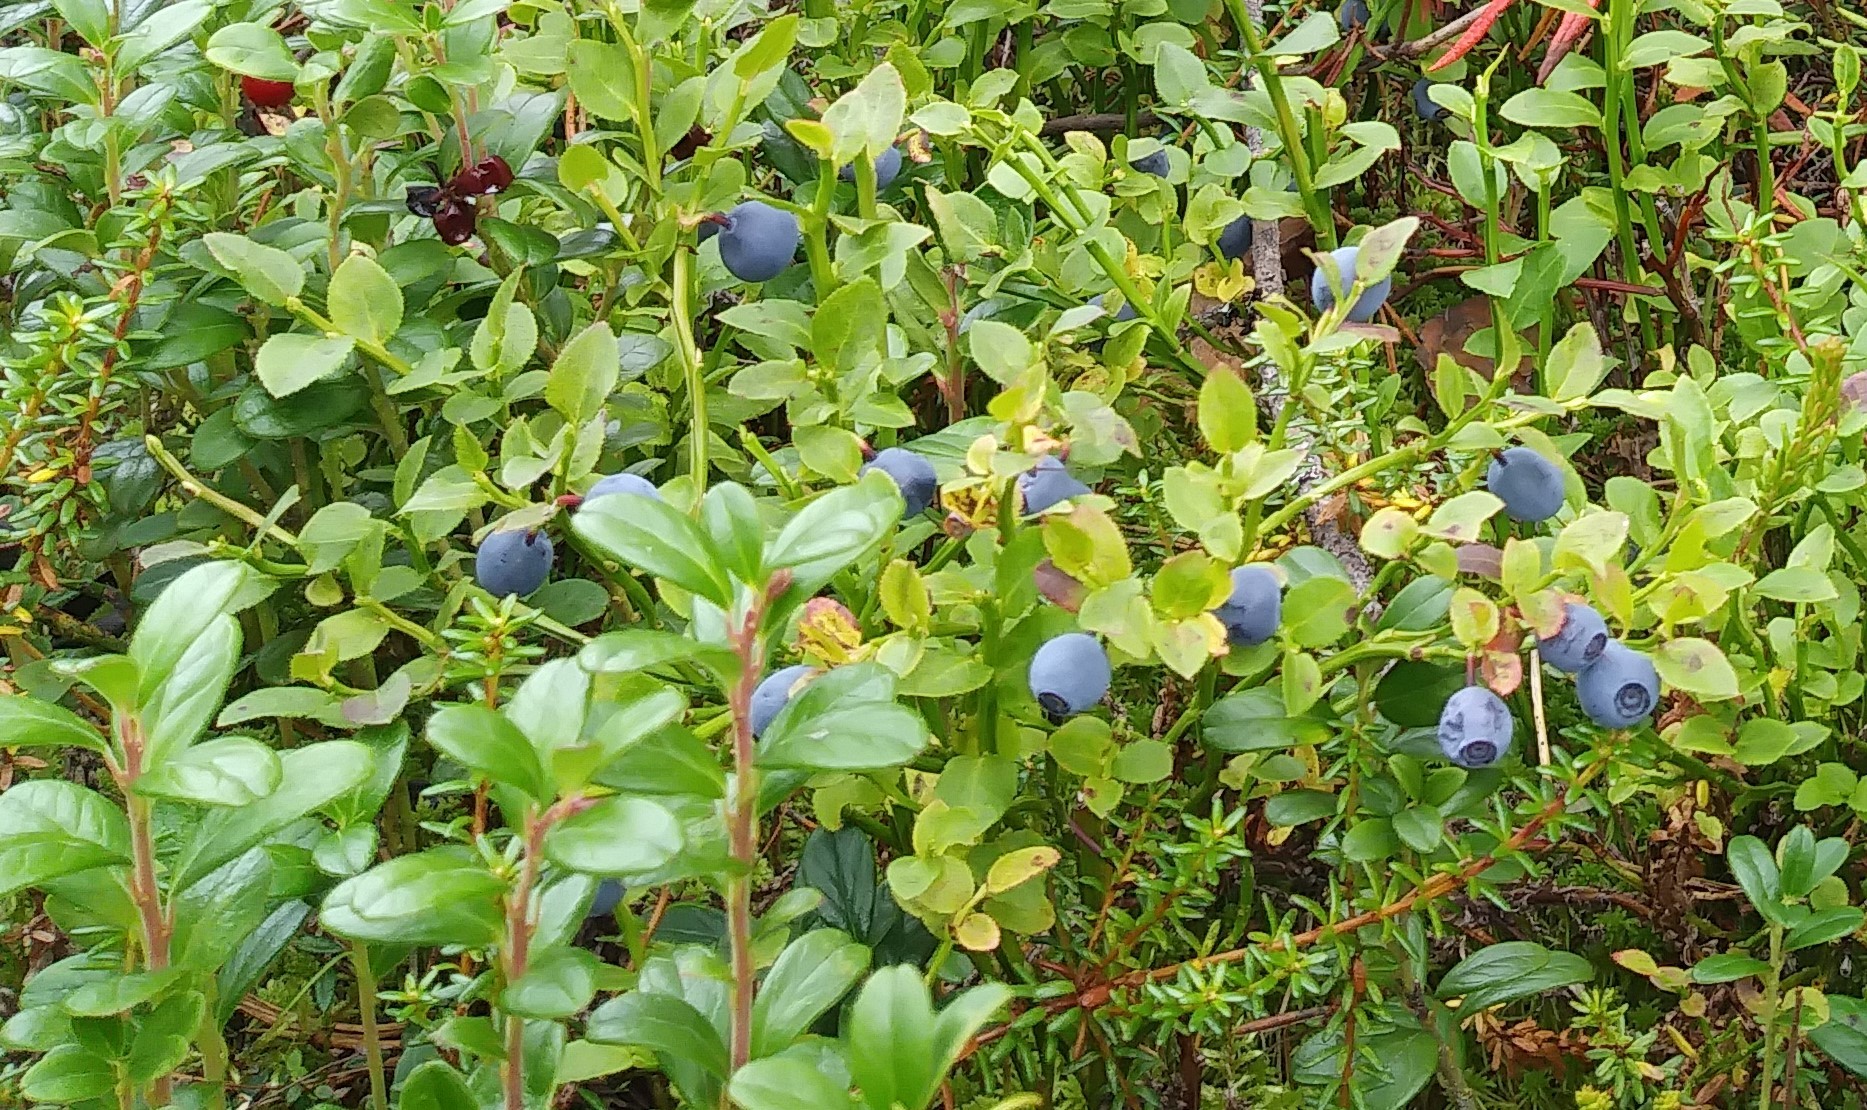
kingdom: Plantae
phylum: Tracheophyta
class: Magnoliopsida
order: Ericales
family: Ericaceae
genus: Vaccinium
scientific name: Vaccinium myrtillus
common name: Bilberry
